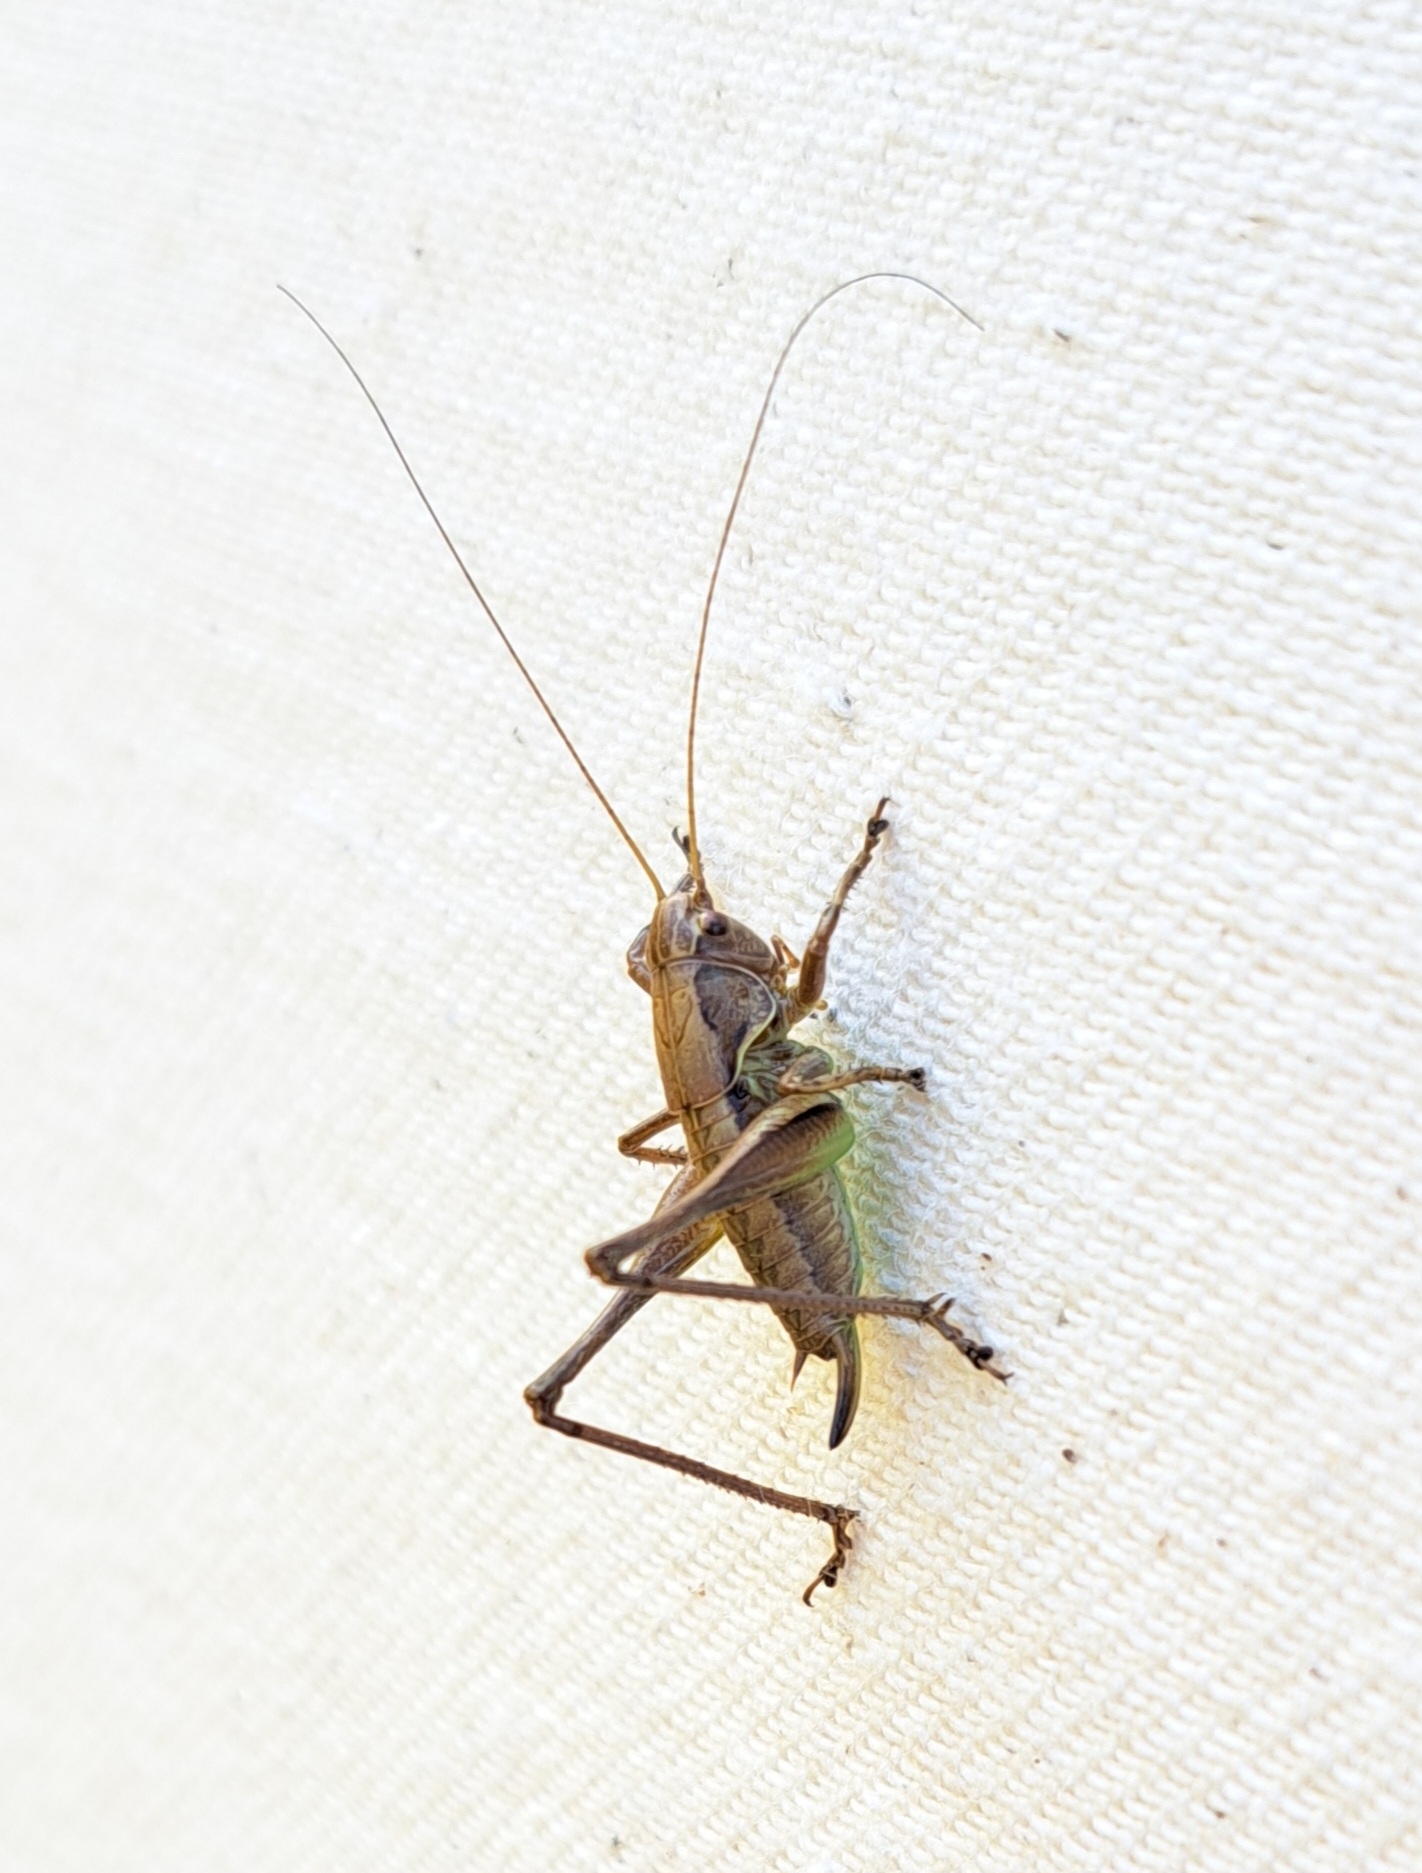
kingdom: Animalia
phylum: Arthropoda
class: Insecta
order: Orthoptera
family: Tettigoniidae
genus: Pholidoptera
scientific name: Pholidoptera griseoaptera
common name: Dark bush-cricket
